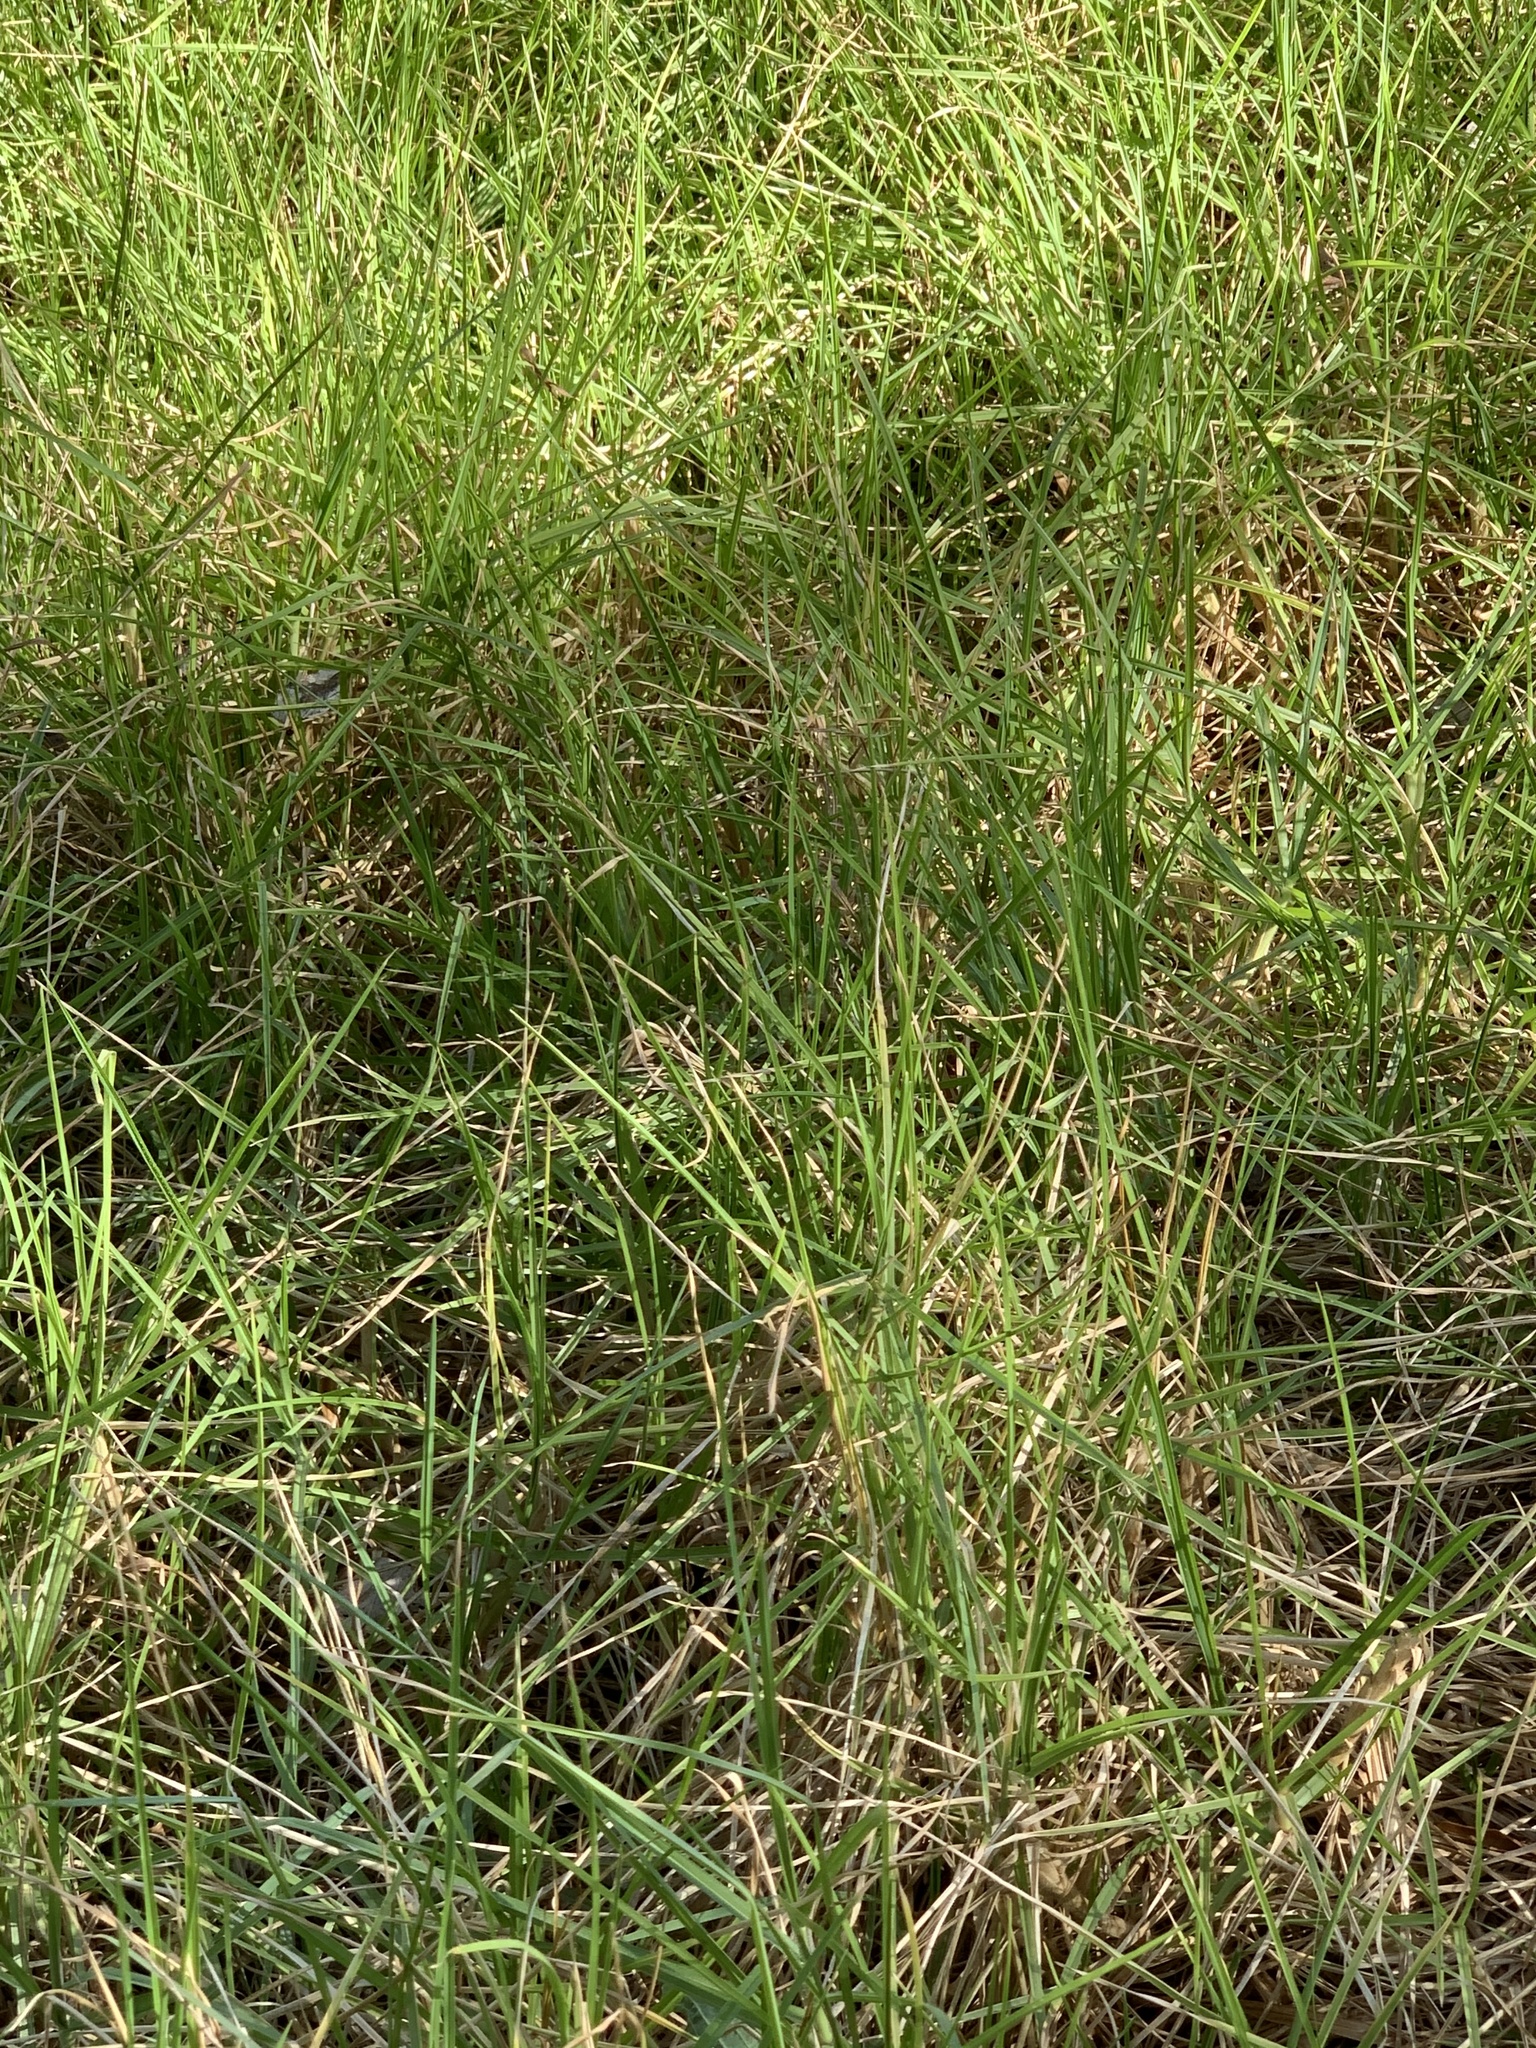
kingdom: Plantae
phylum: Tracheophyta
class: Liliopsida
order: Poales
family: Poaceae
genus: Cenchrus
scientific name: Cenchrus clandestinus
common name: Kikuyugrass
